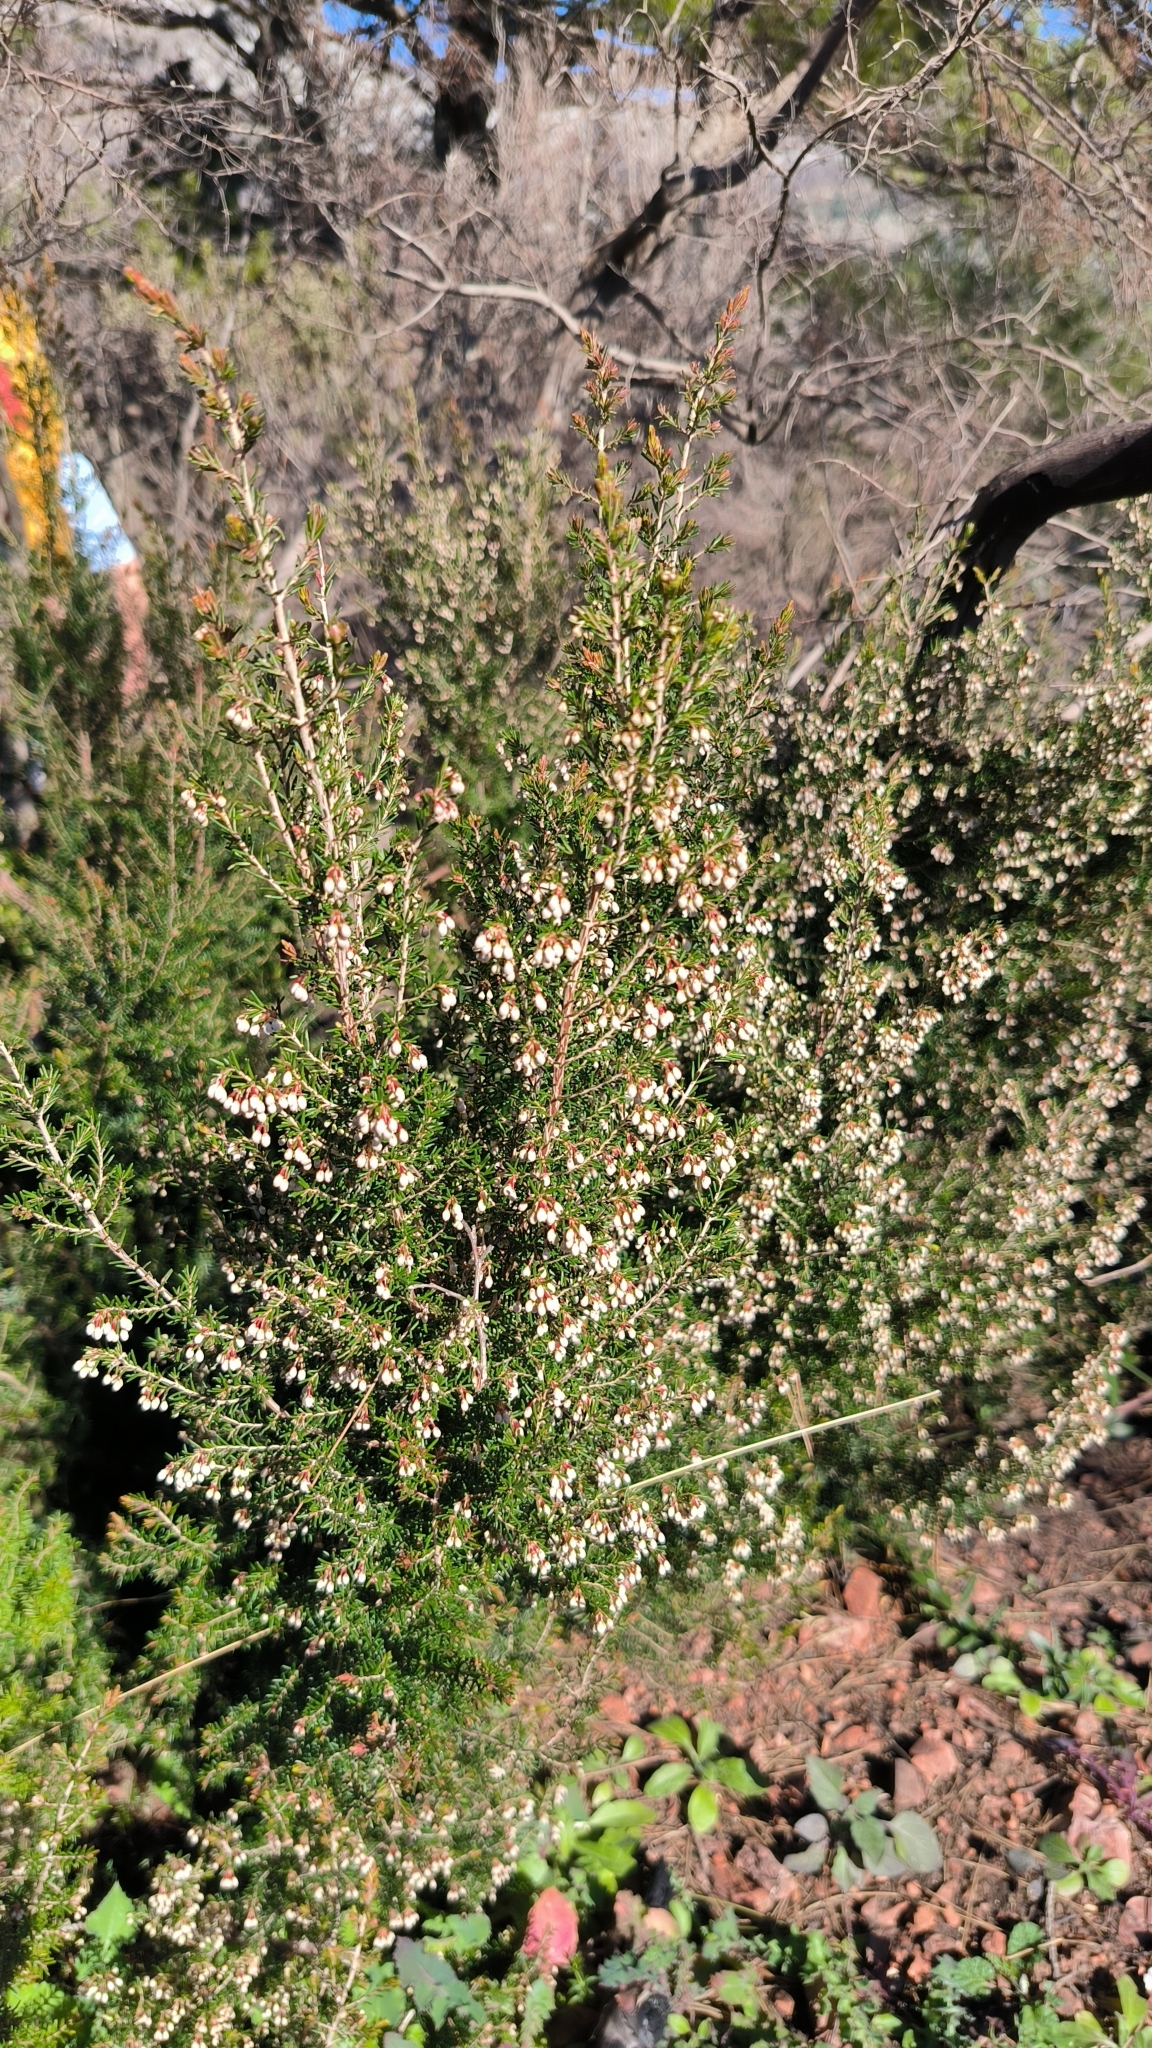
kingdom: Plantae
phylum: Tracheophyta
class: Magnoliopsida
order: Ericales
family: Ericaceae
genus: Erica
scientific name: Erica arborea
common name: Tree heath
